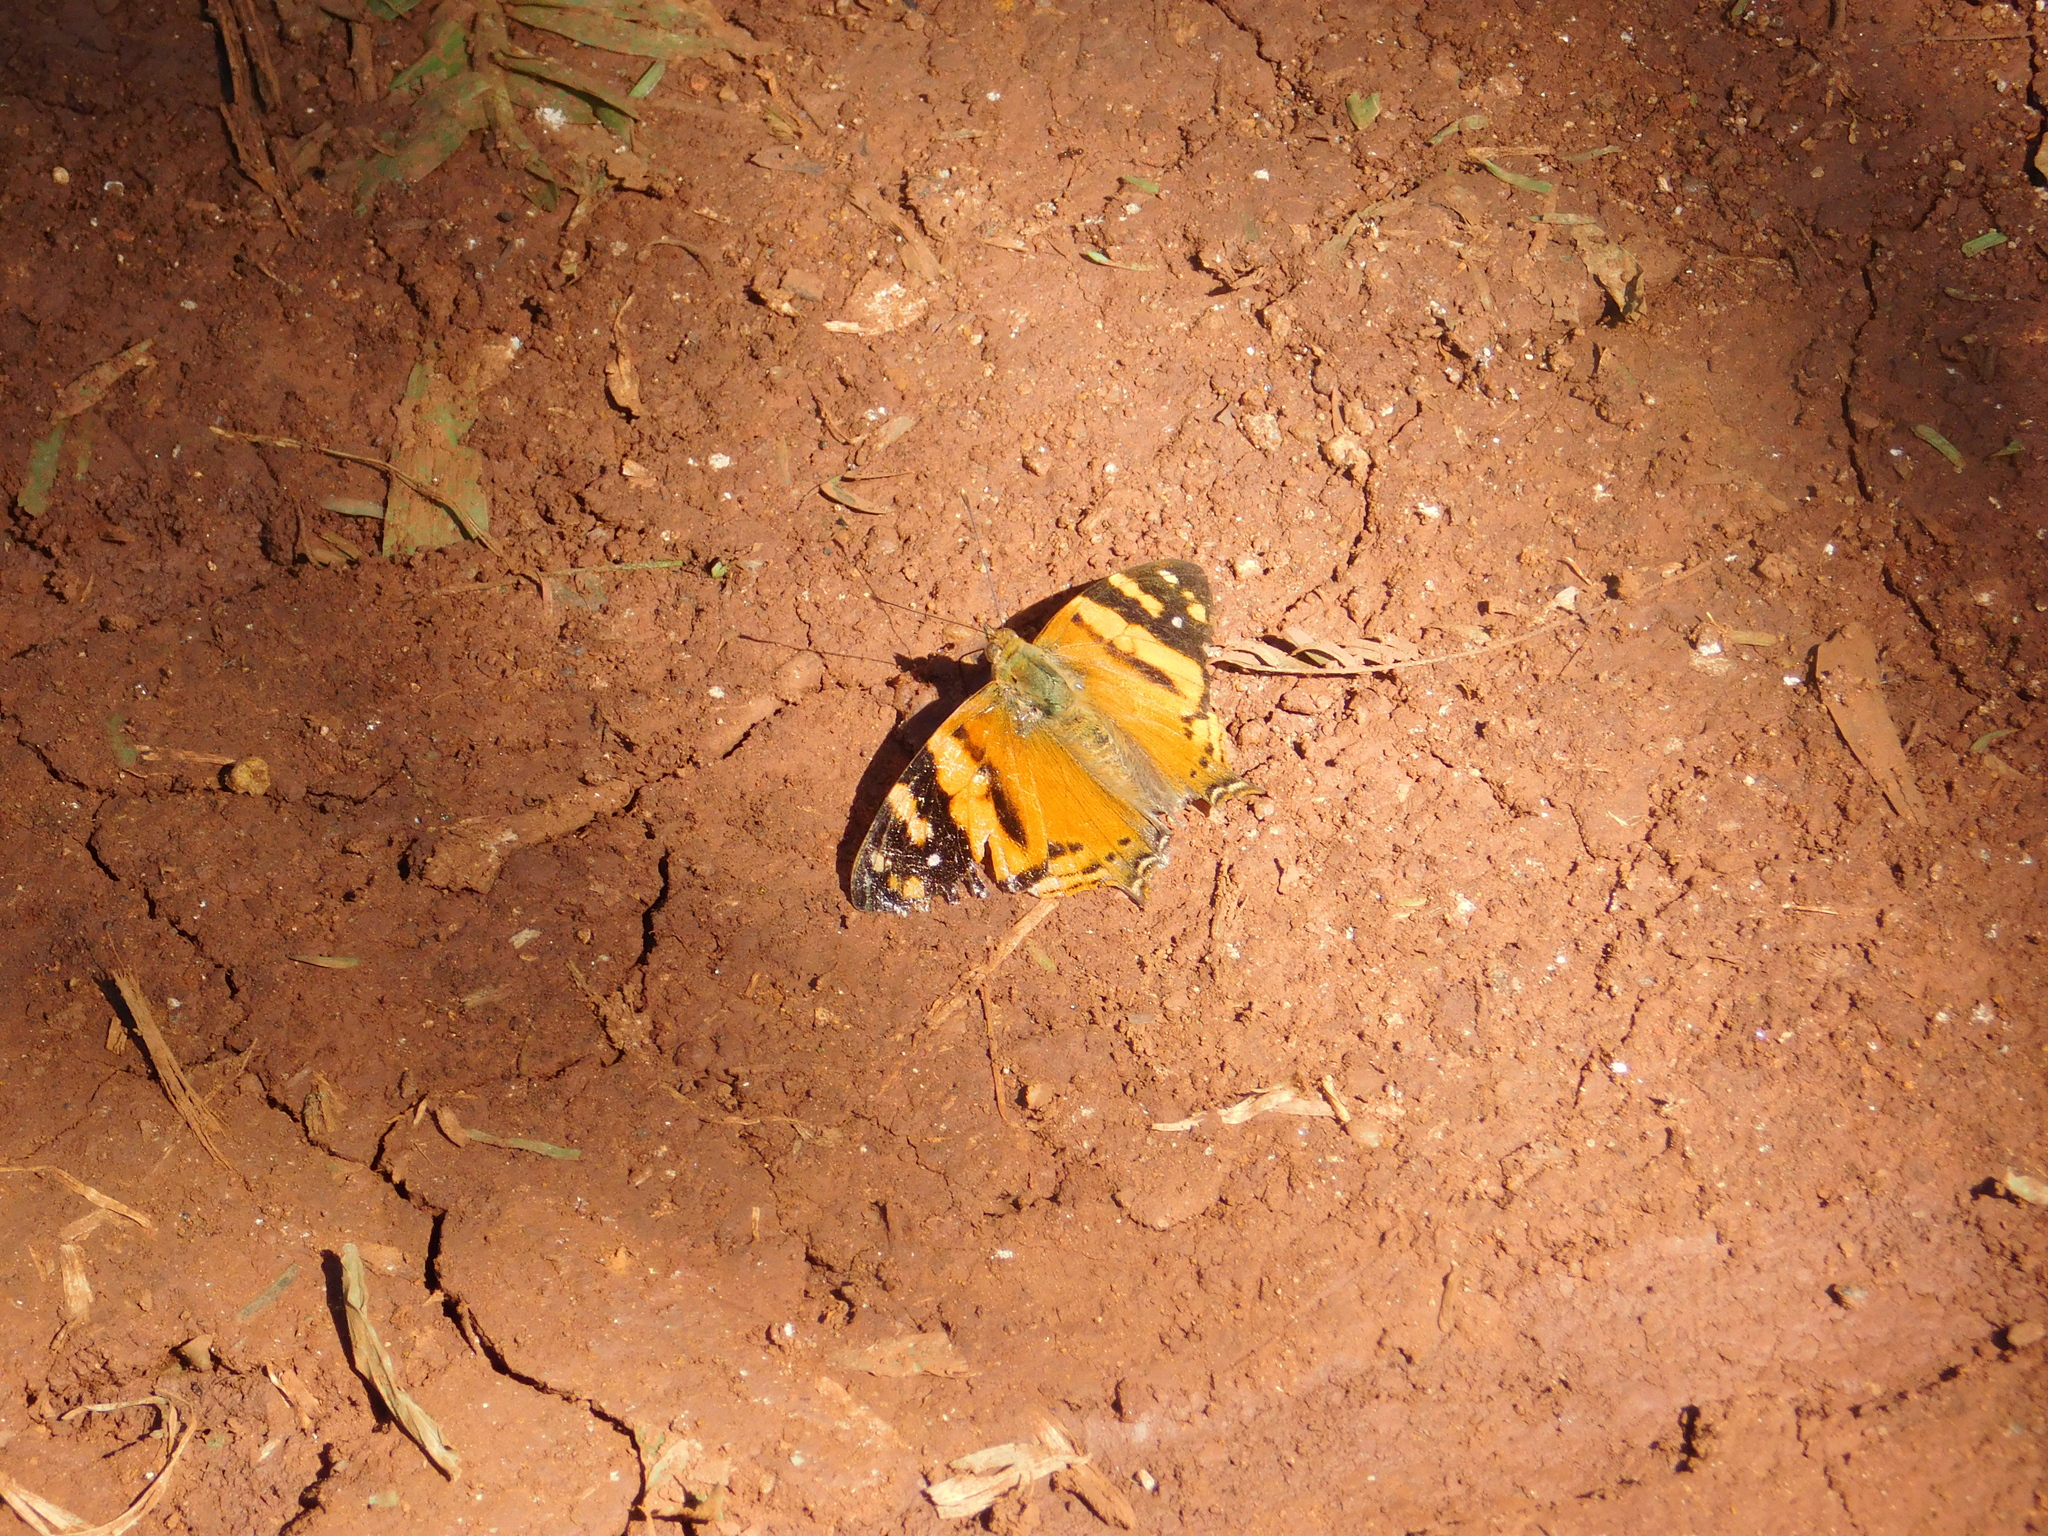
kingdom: Animalia
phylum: Arthropoda
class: Insecta
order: Lepidoptera
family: Nymphalidae
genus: Hypanartia
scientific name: Hypanartia lethe
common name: Orange mapwing
